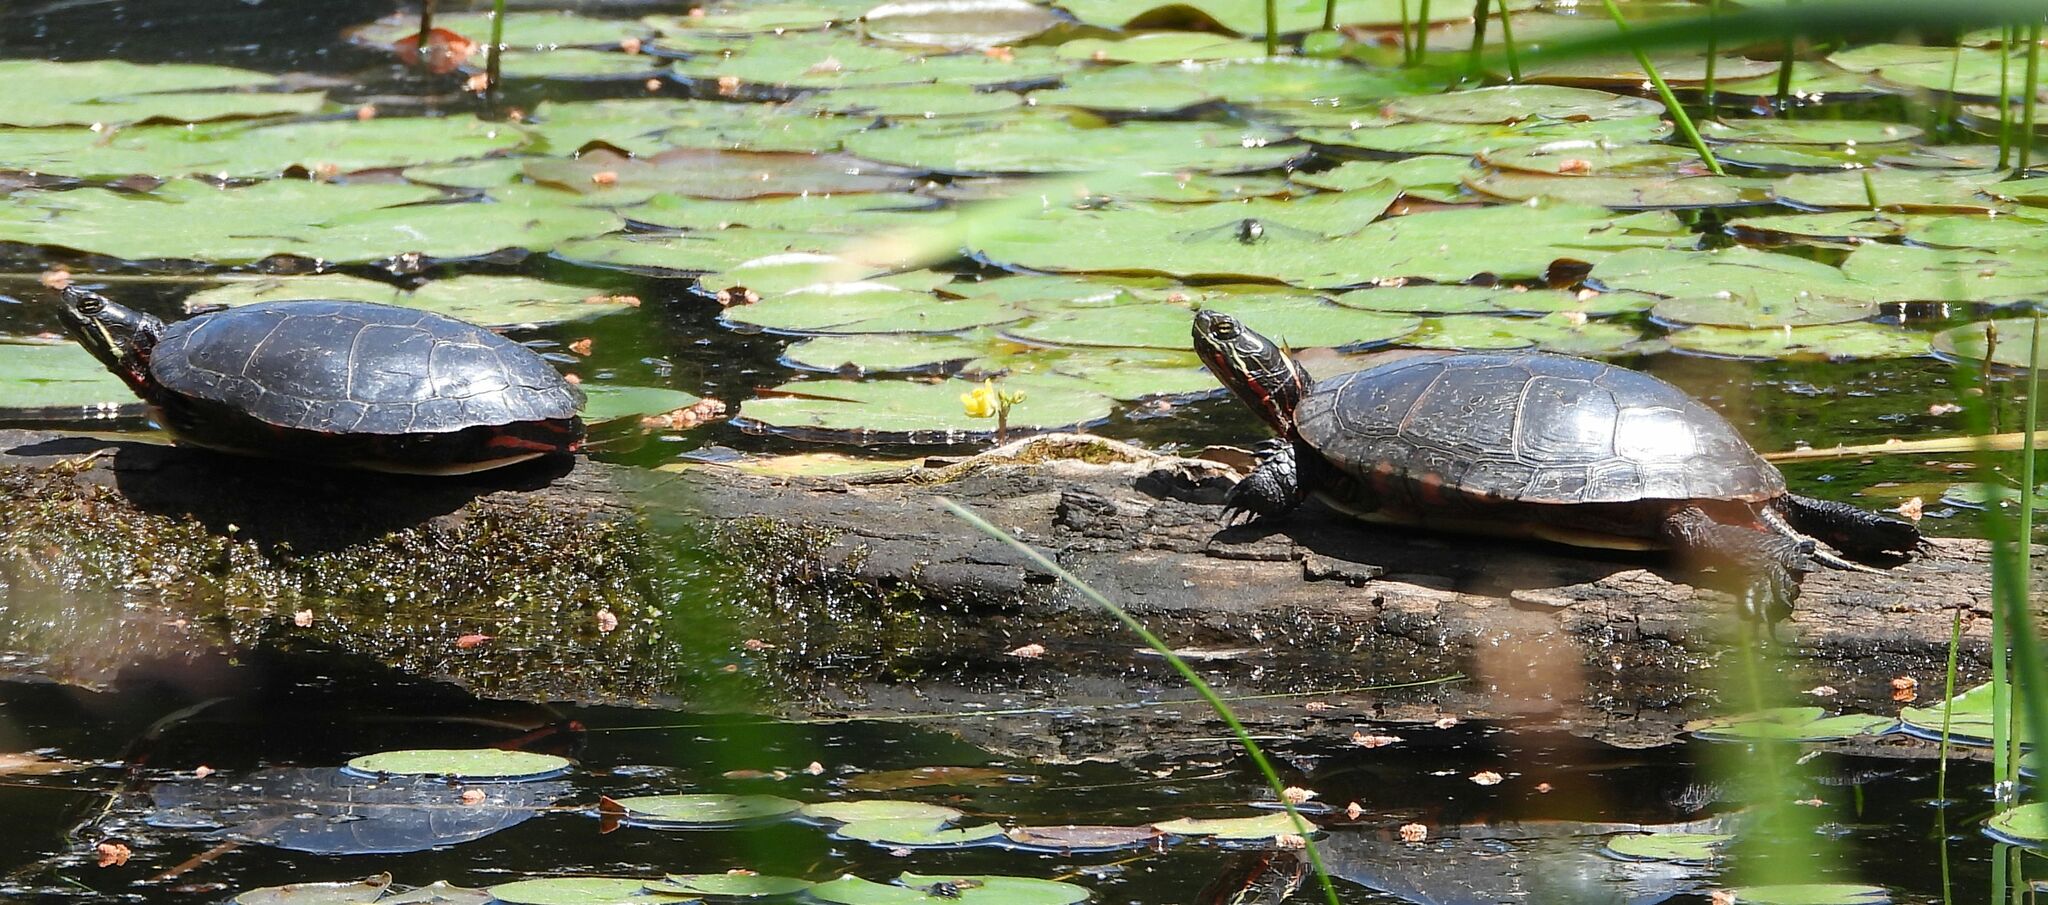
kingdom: Animalia
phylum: Chordata
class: Testudines
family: Emydidae
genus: Chrysemys
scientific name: Chrysemys picta
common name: Painted turtle
